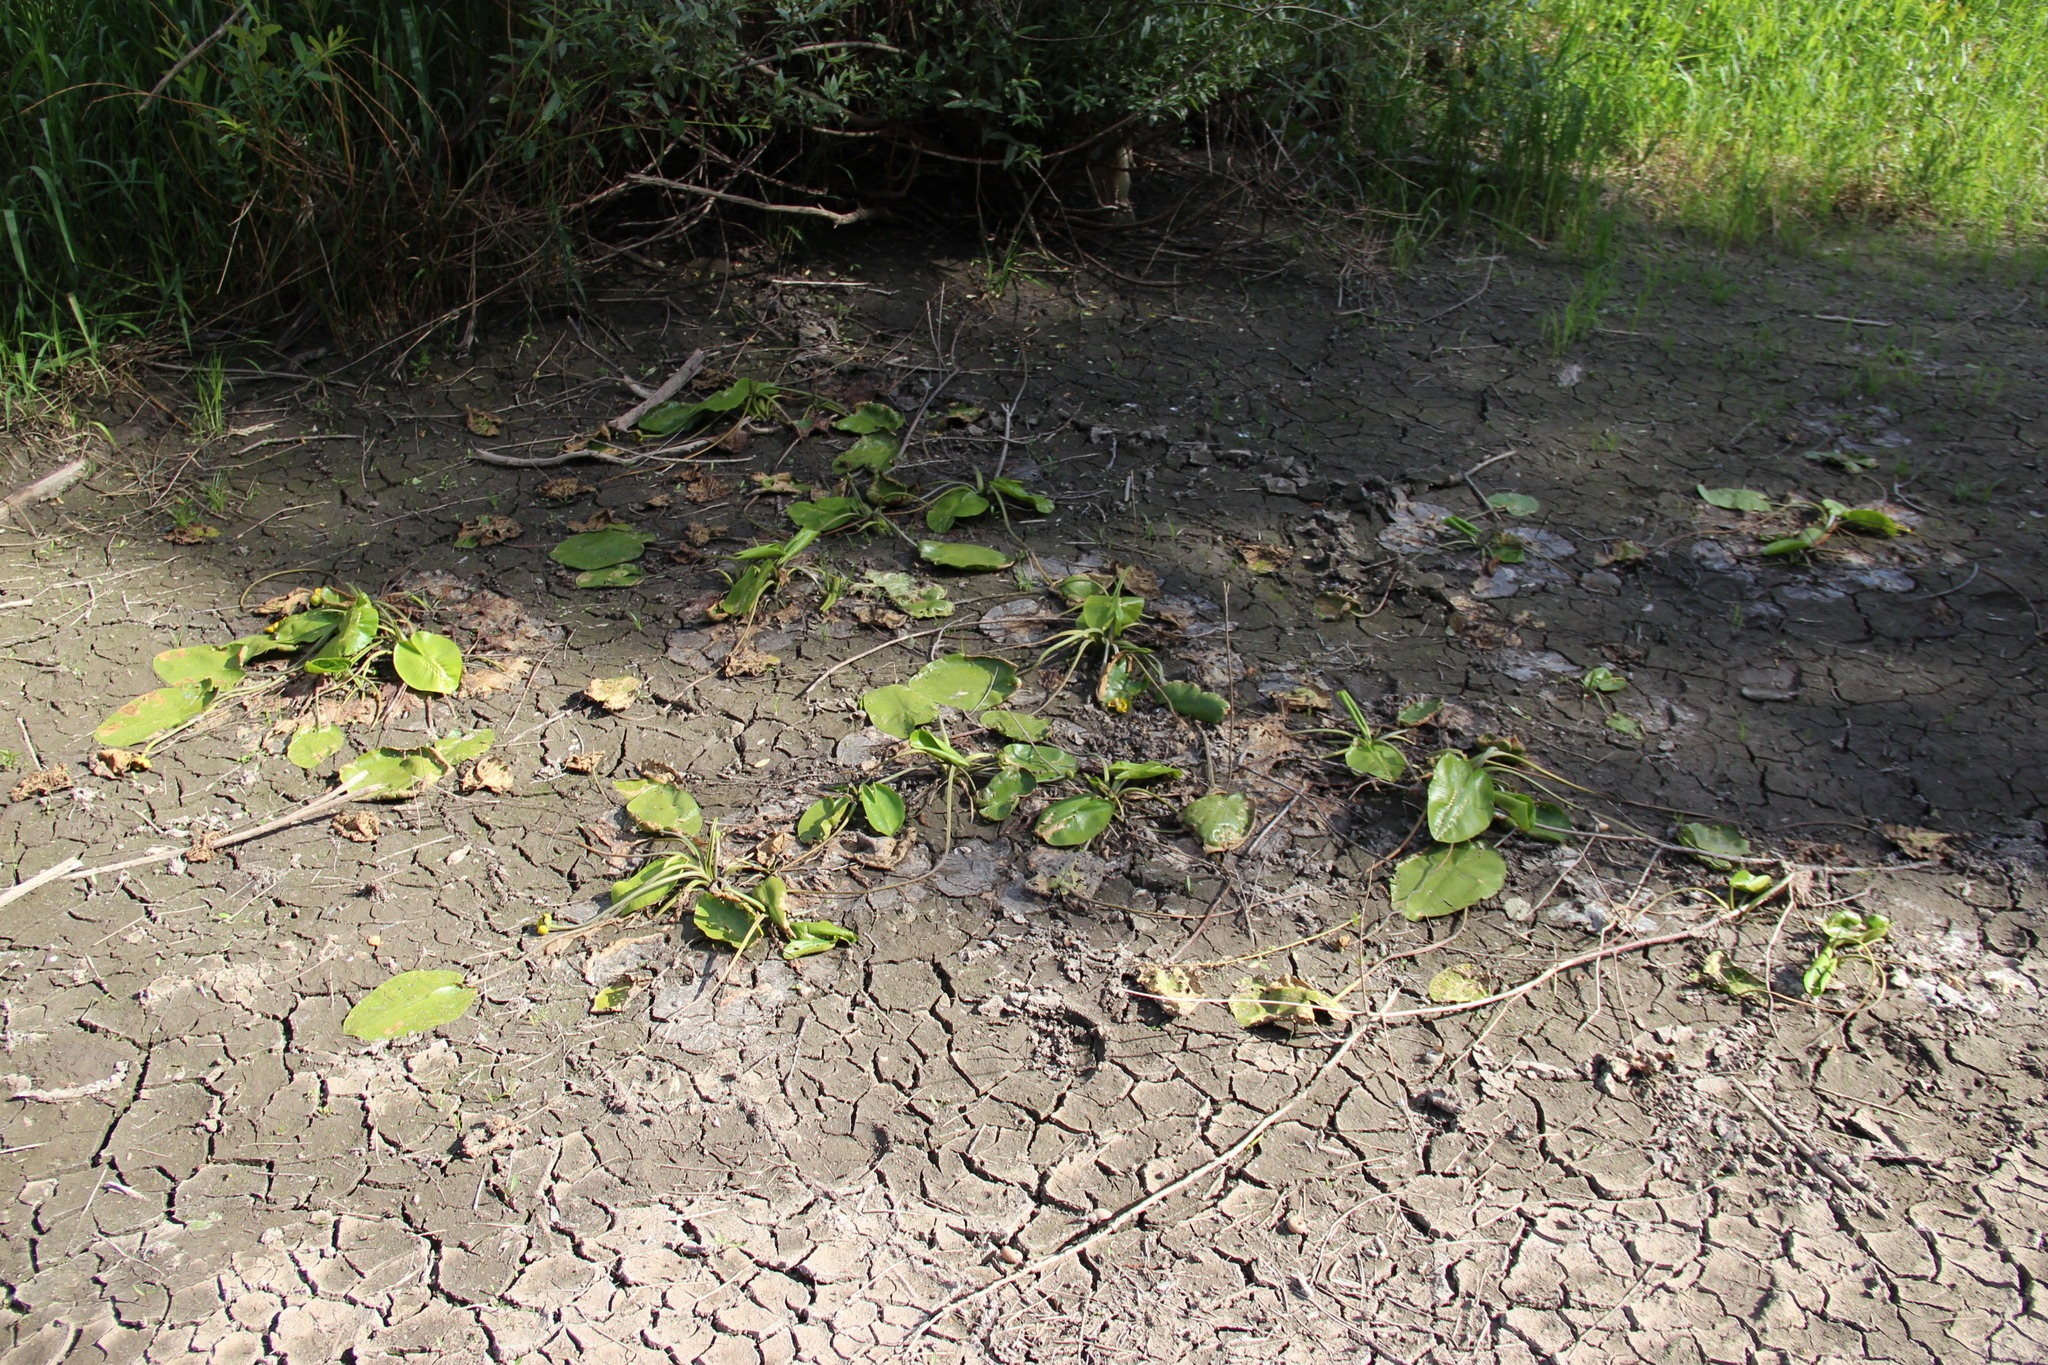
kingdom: Plantae
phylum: Tracheophyta
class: Magnoliopsida
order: Nymphaeales
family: Nymphaeaceae
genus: Nuphar
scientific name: Nuphar lutea
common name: Yellow water-lily
